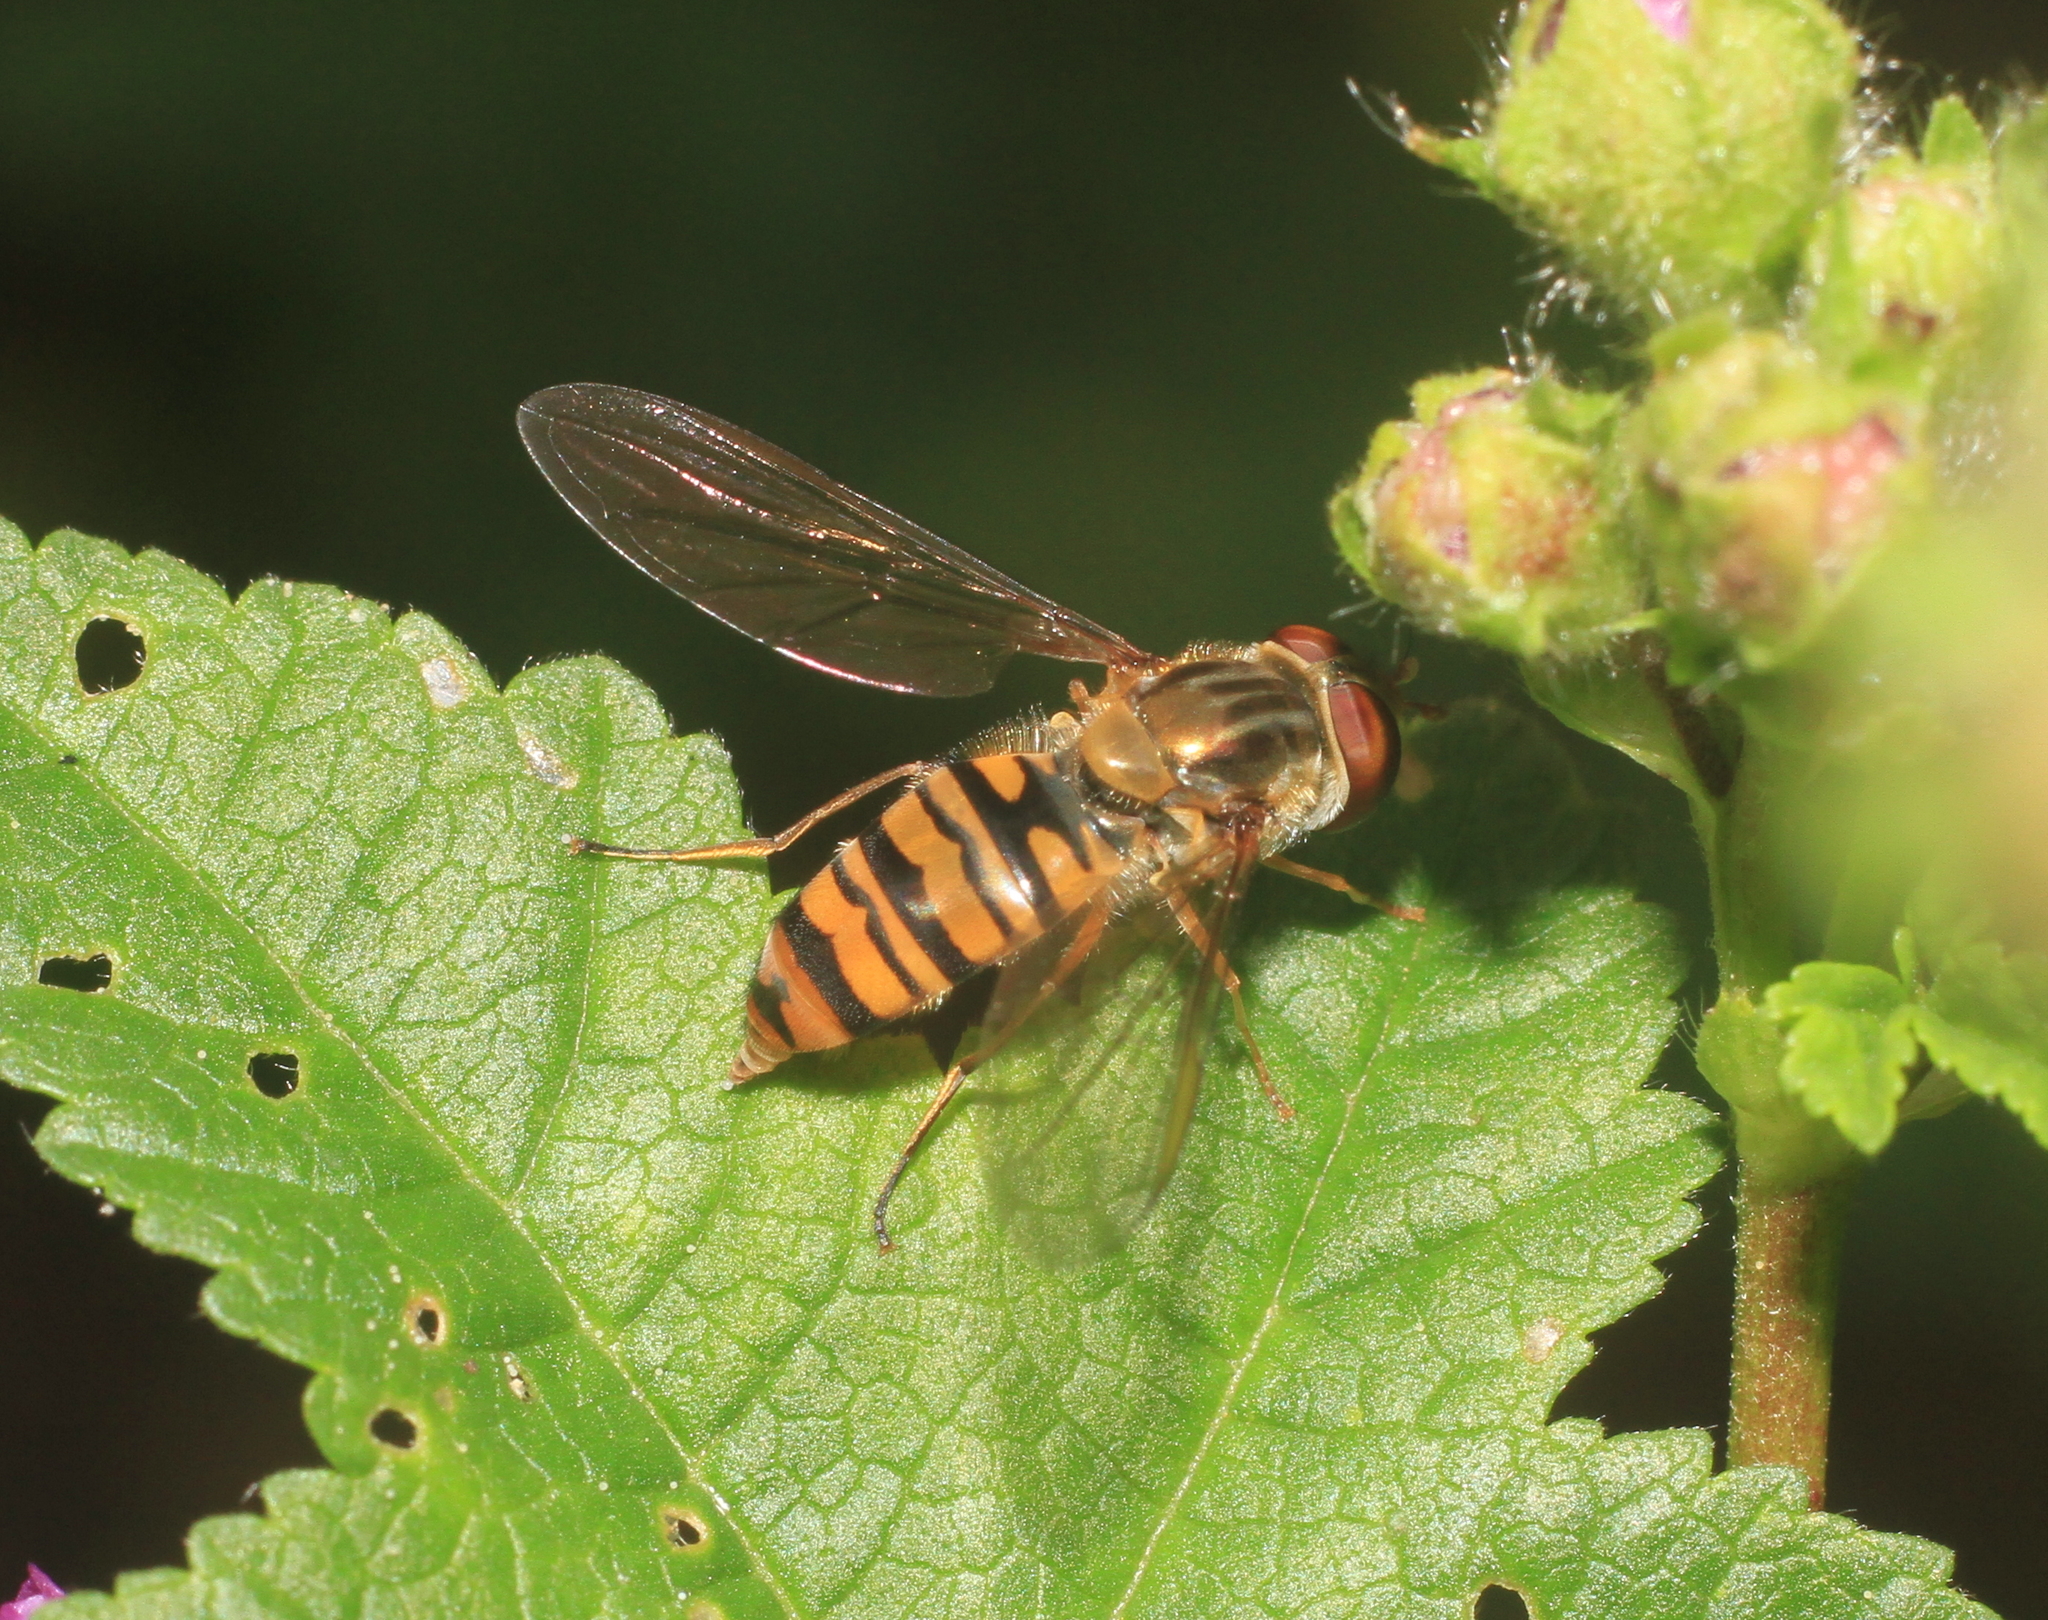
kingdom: Animalia
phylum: Arthropoda
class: Insecta
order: Diptera
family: Syrphidae
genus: Episyrphus
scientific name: Episyrphus balteatus
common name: Marmalade hoverfly
